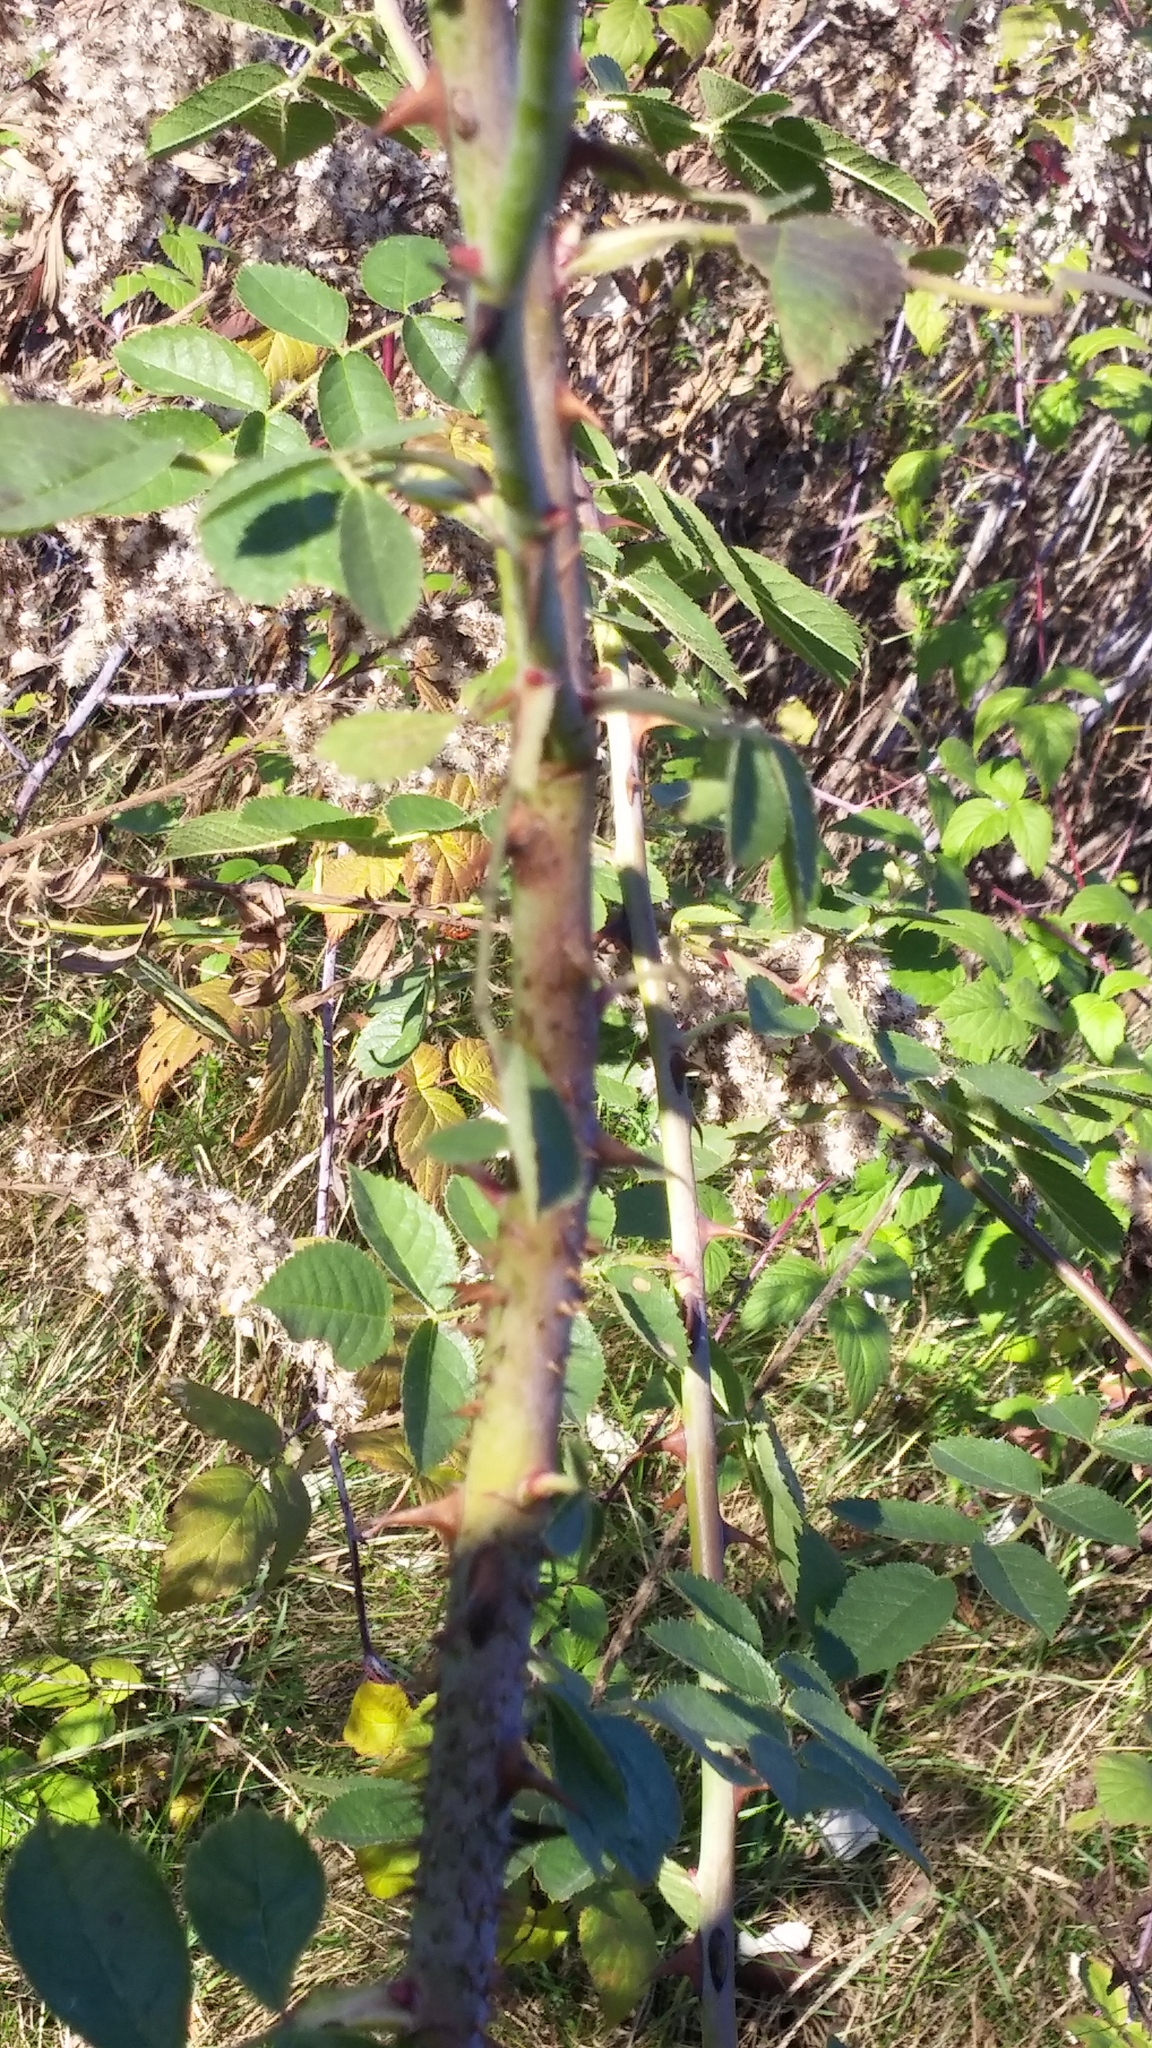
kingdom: Animalia
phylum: Arthropoda
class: Insecta
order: Hymenoptera
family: Cynipidae
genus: Diplolepis
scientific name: Diplolepis rosae
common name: Bedeguar gall
